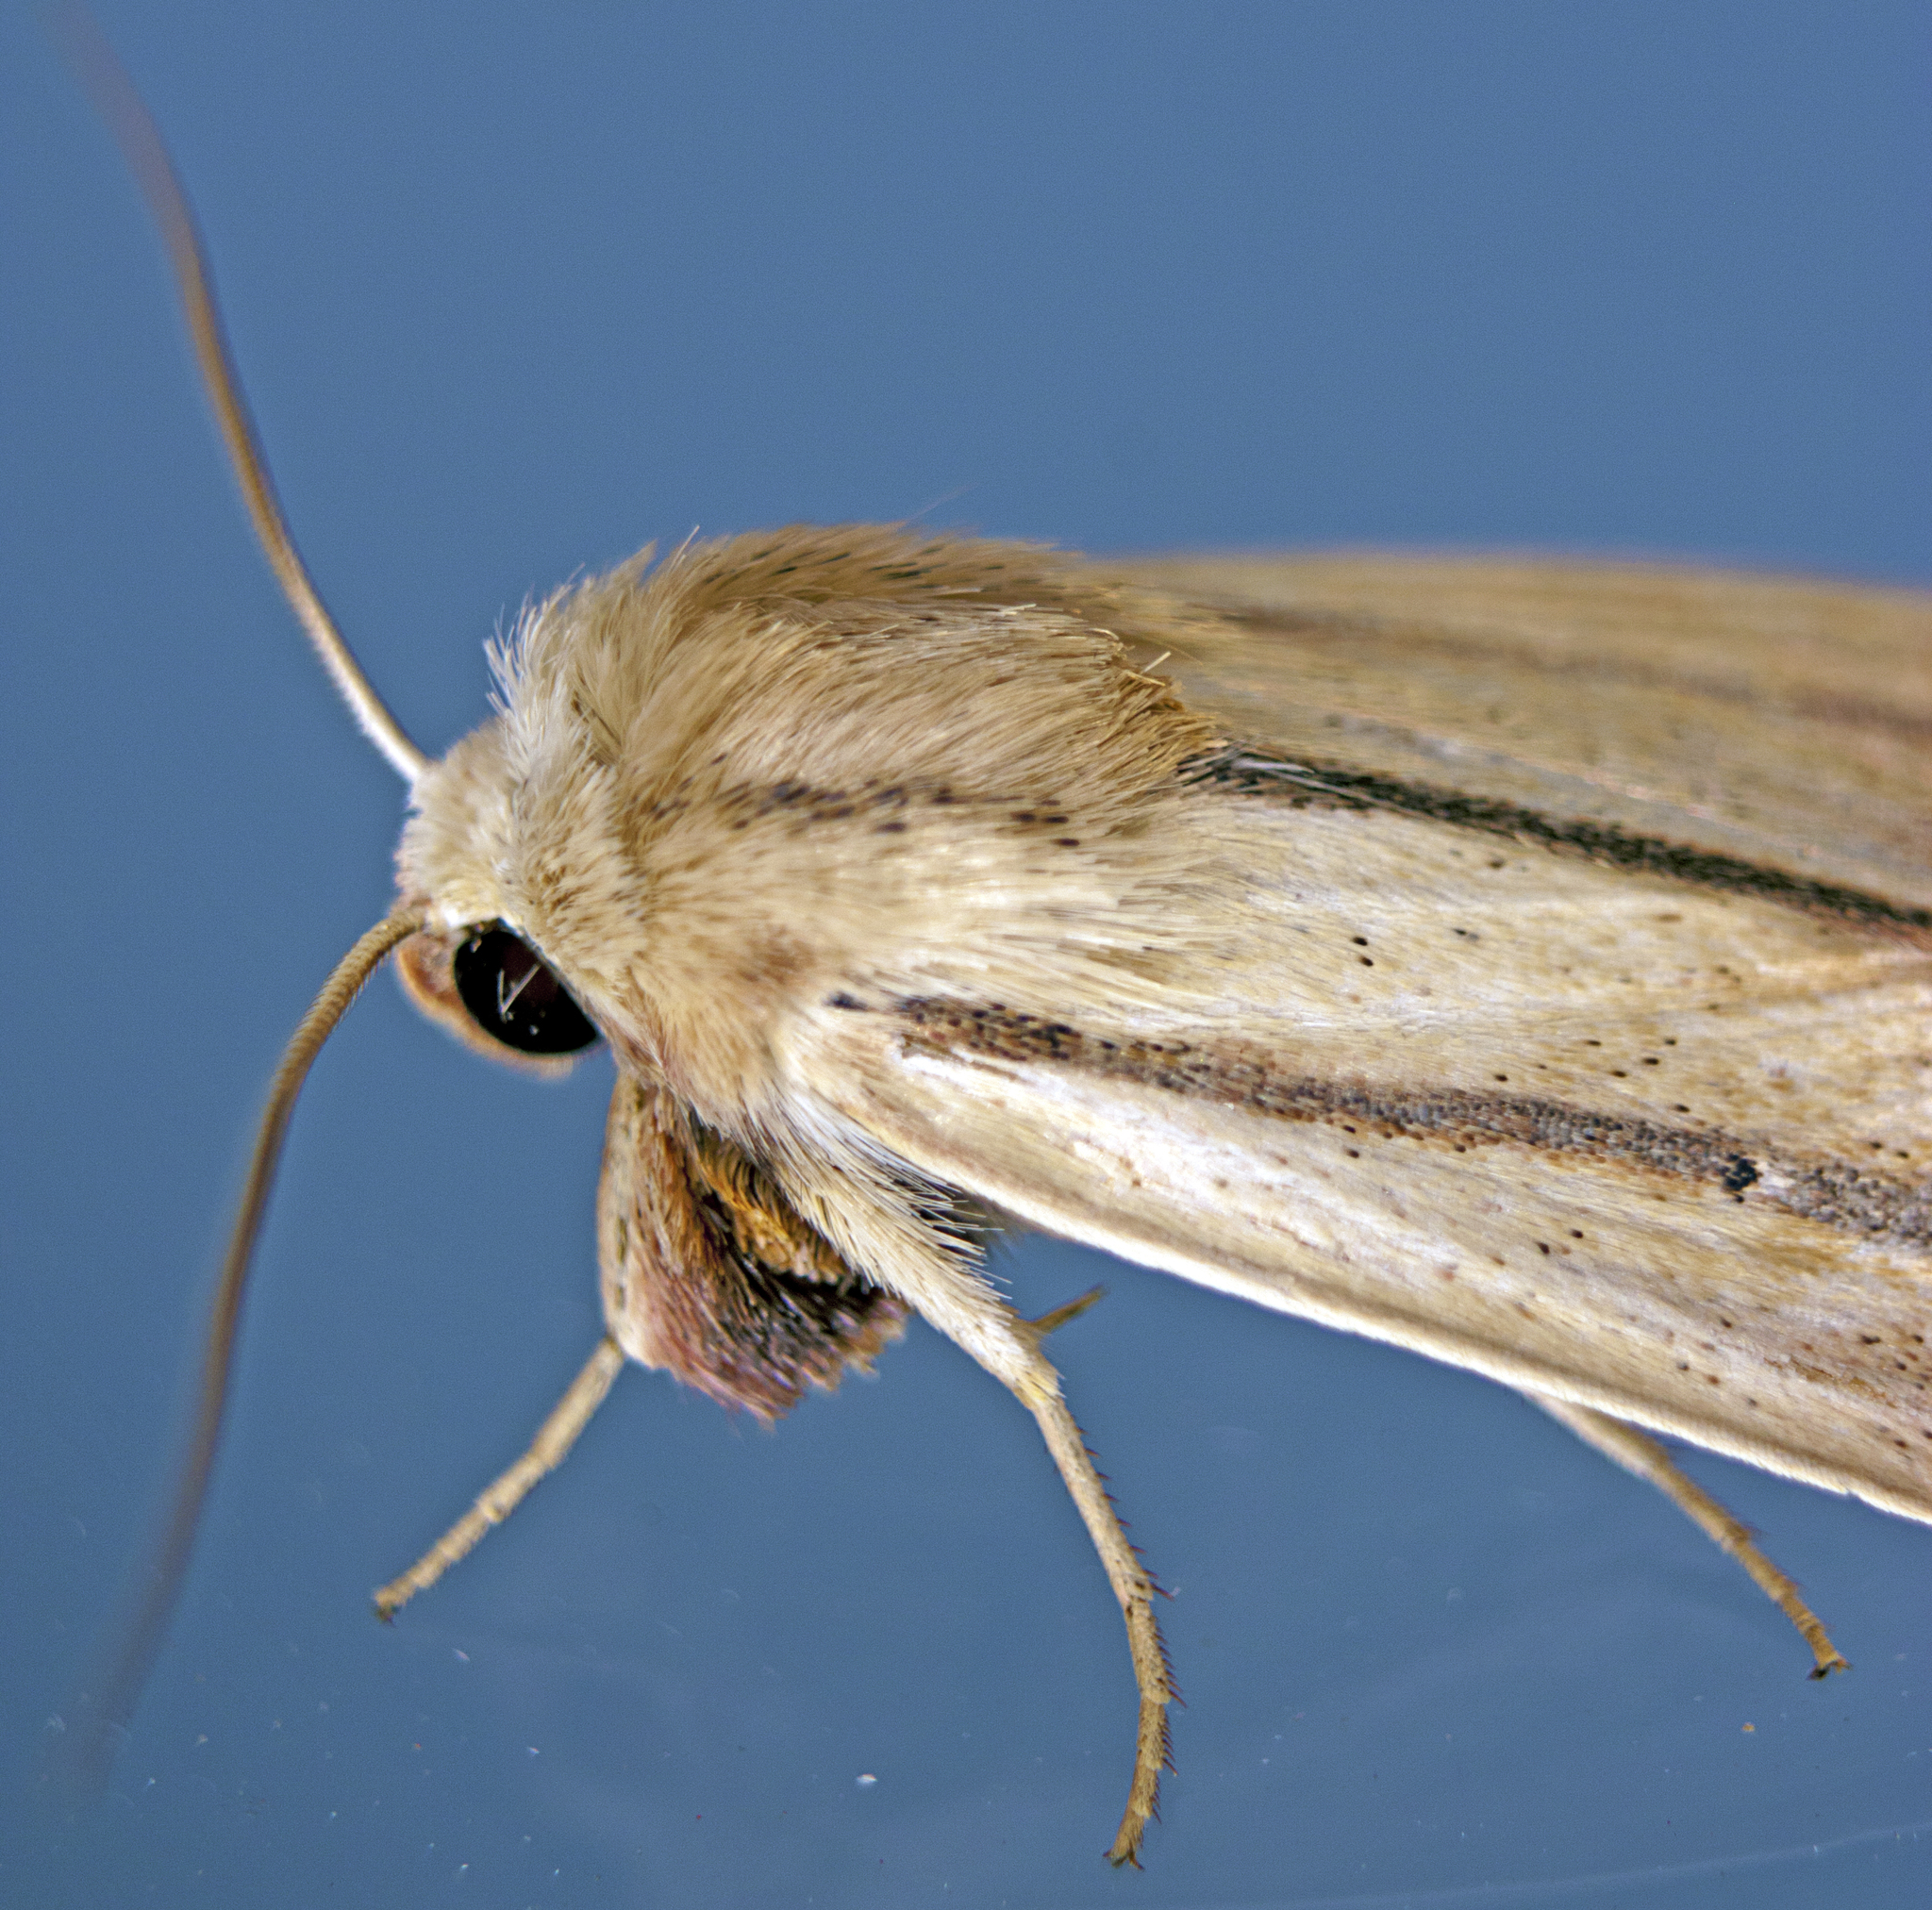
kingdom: Animalia
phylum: Arthropoda
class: Insecta
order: Lepidoptera
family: Noctuidae
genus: Leucania
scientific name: Leucania diatrecta
